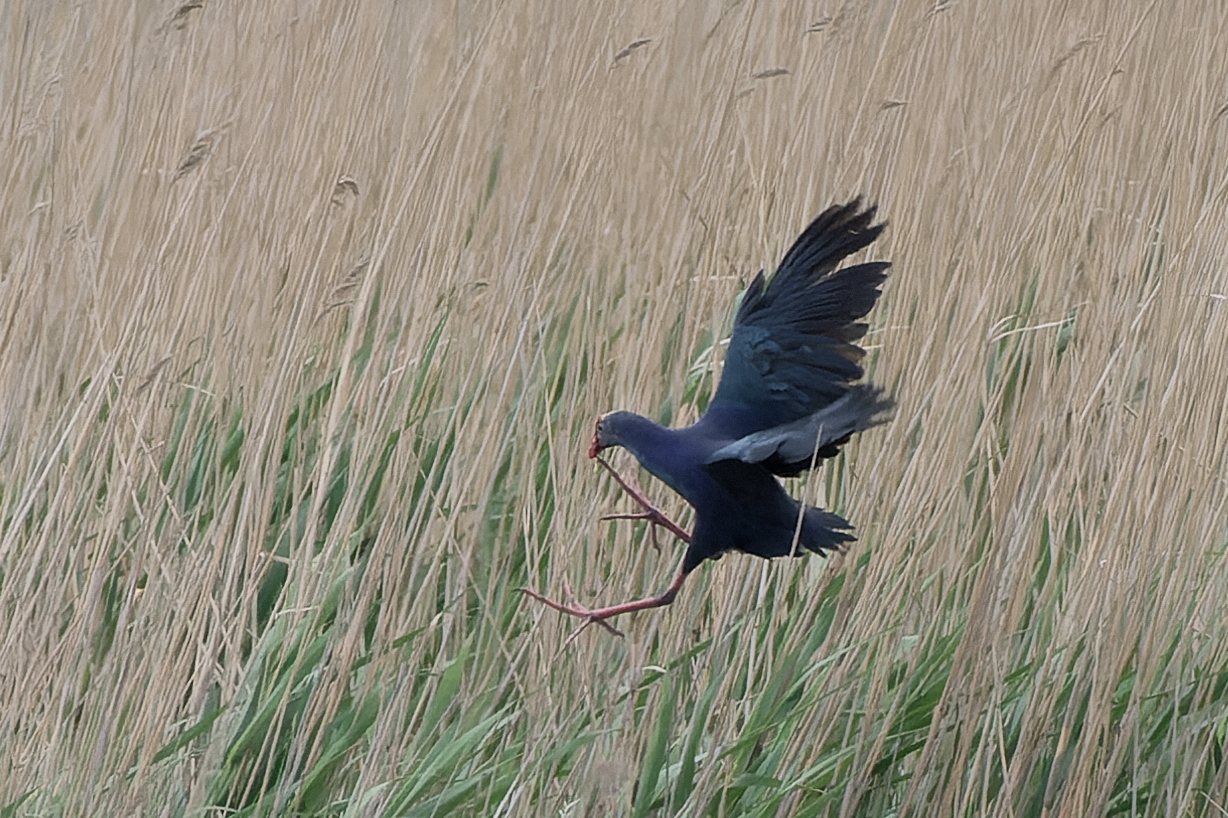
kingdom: Animalia
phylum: Chordata
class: Aves
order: Gruiformes
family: Rallidae
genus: Porphyrio
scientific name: Porphyrio porphyrio
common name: Purple swamphen
